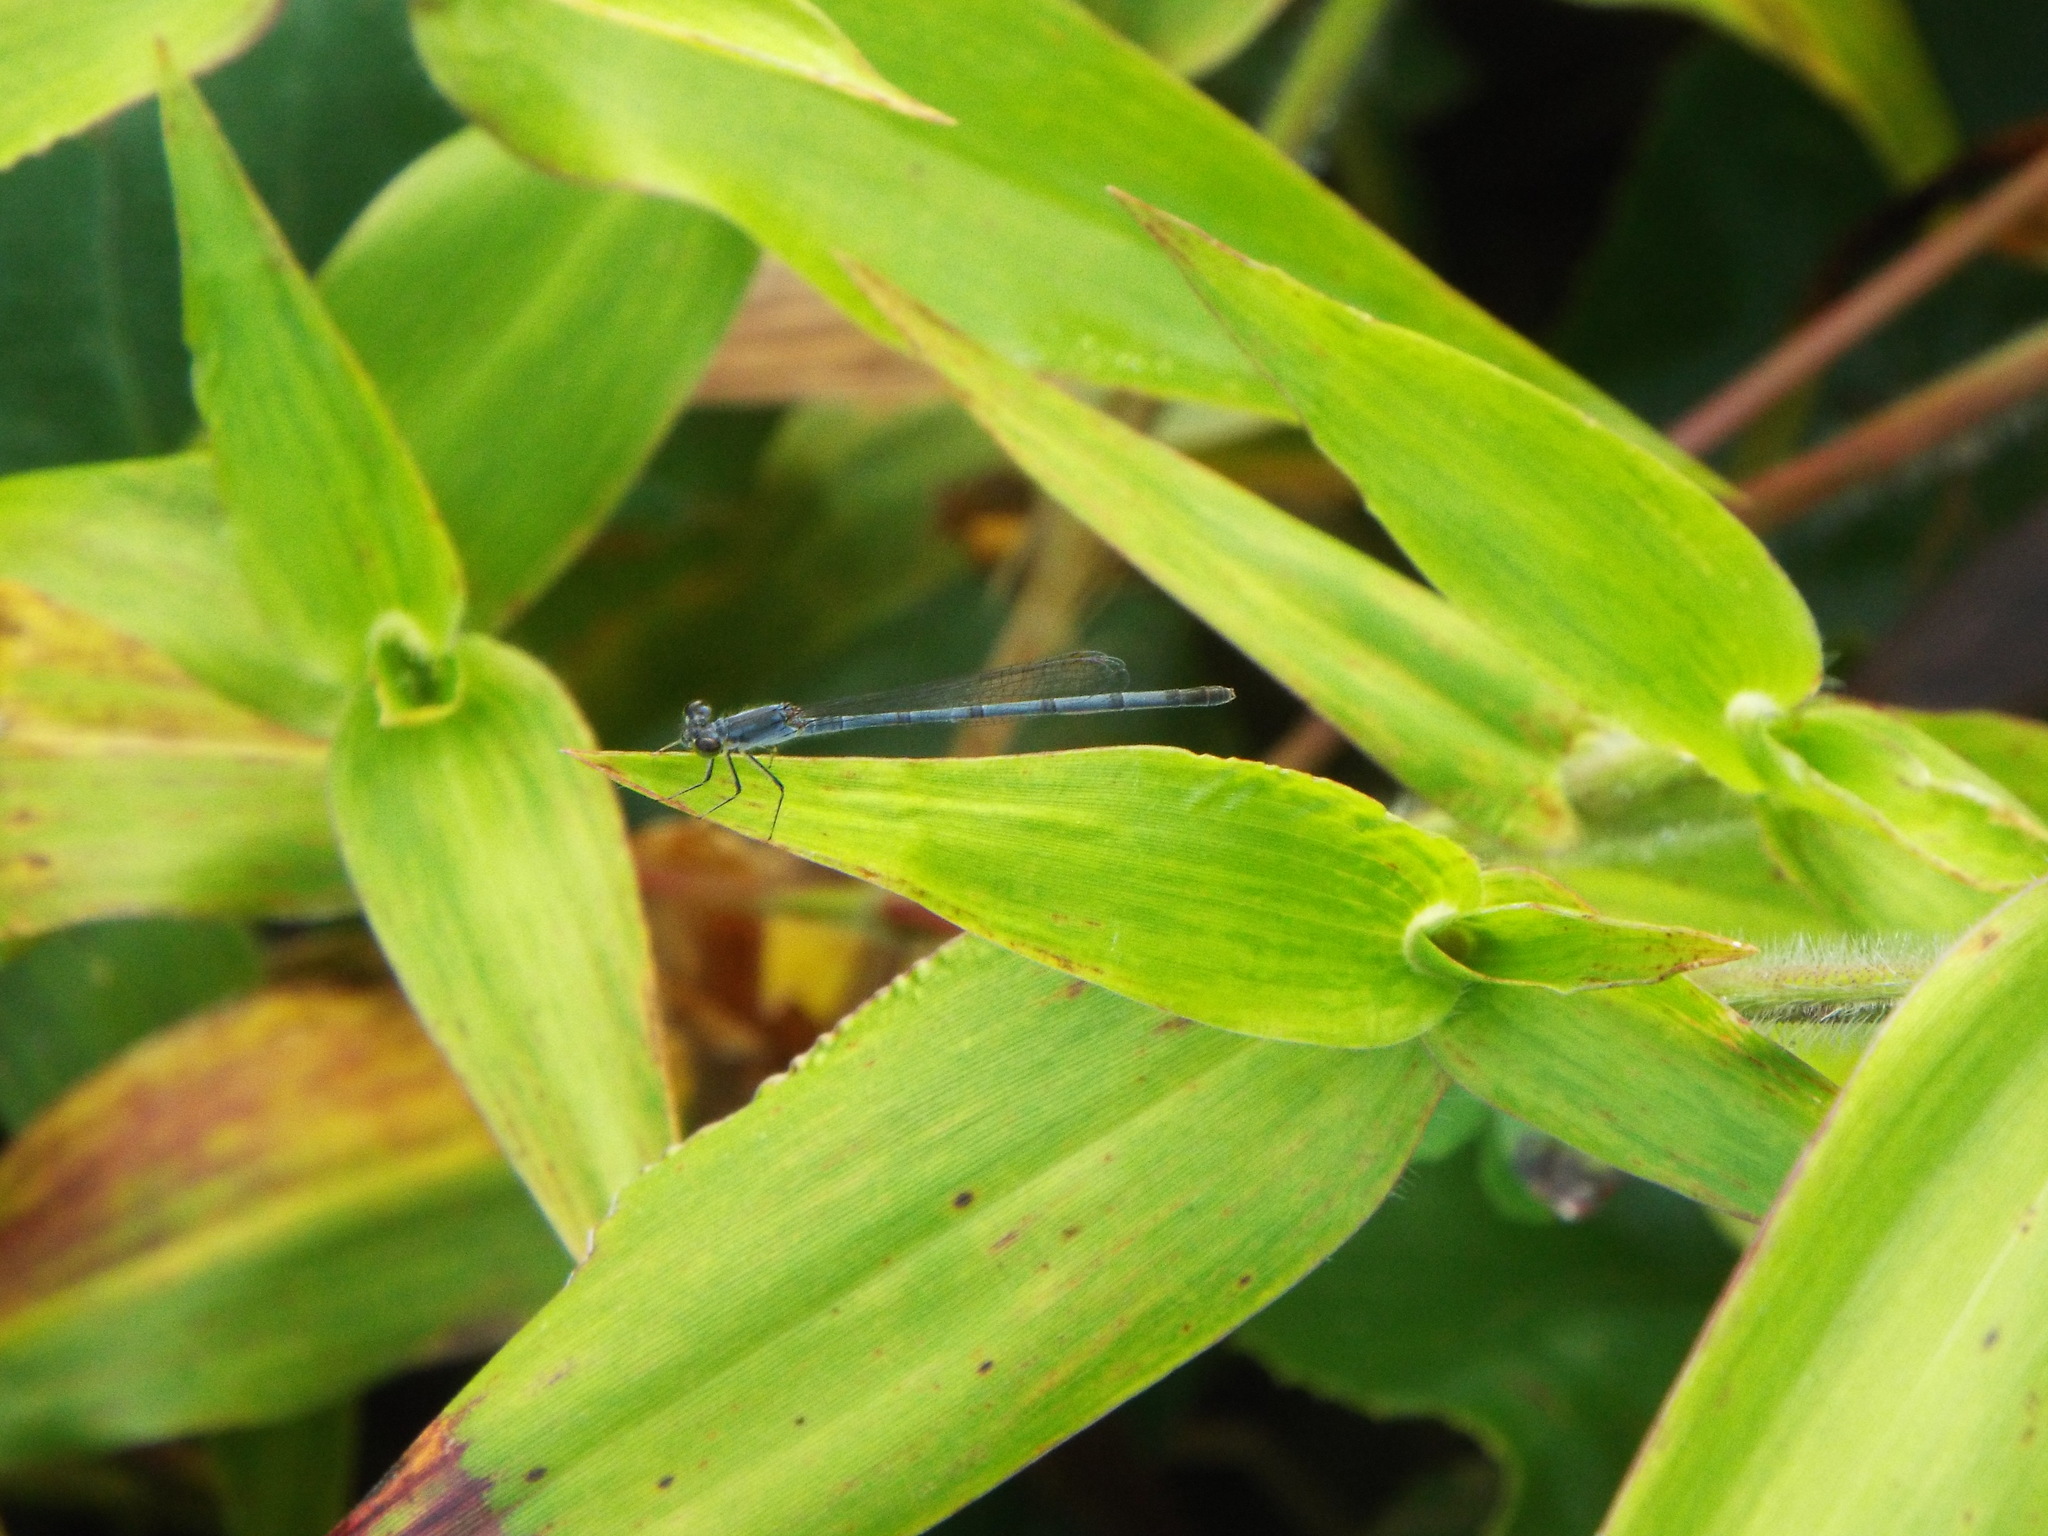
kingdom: Animalia
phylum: Arthropoda
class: Insecta
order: Odonata
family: Coenagrionidae
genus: Ischnura
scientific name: Ischnura posita
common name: Fragile forktail
